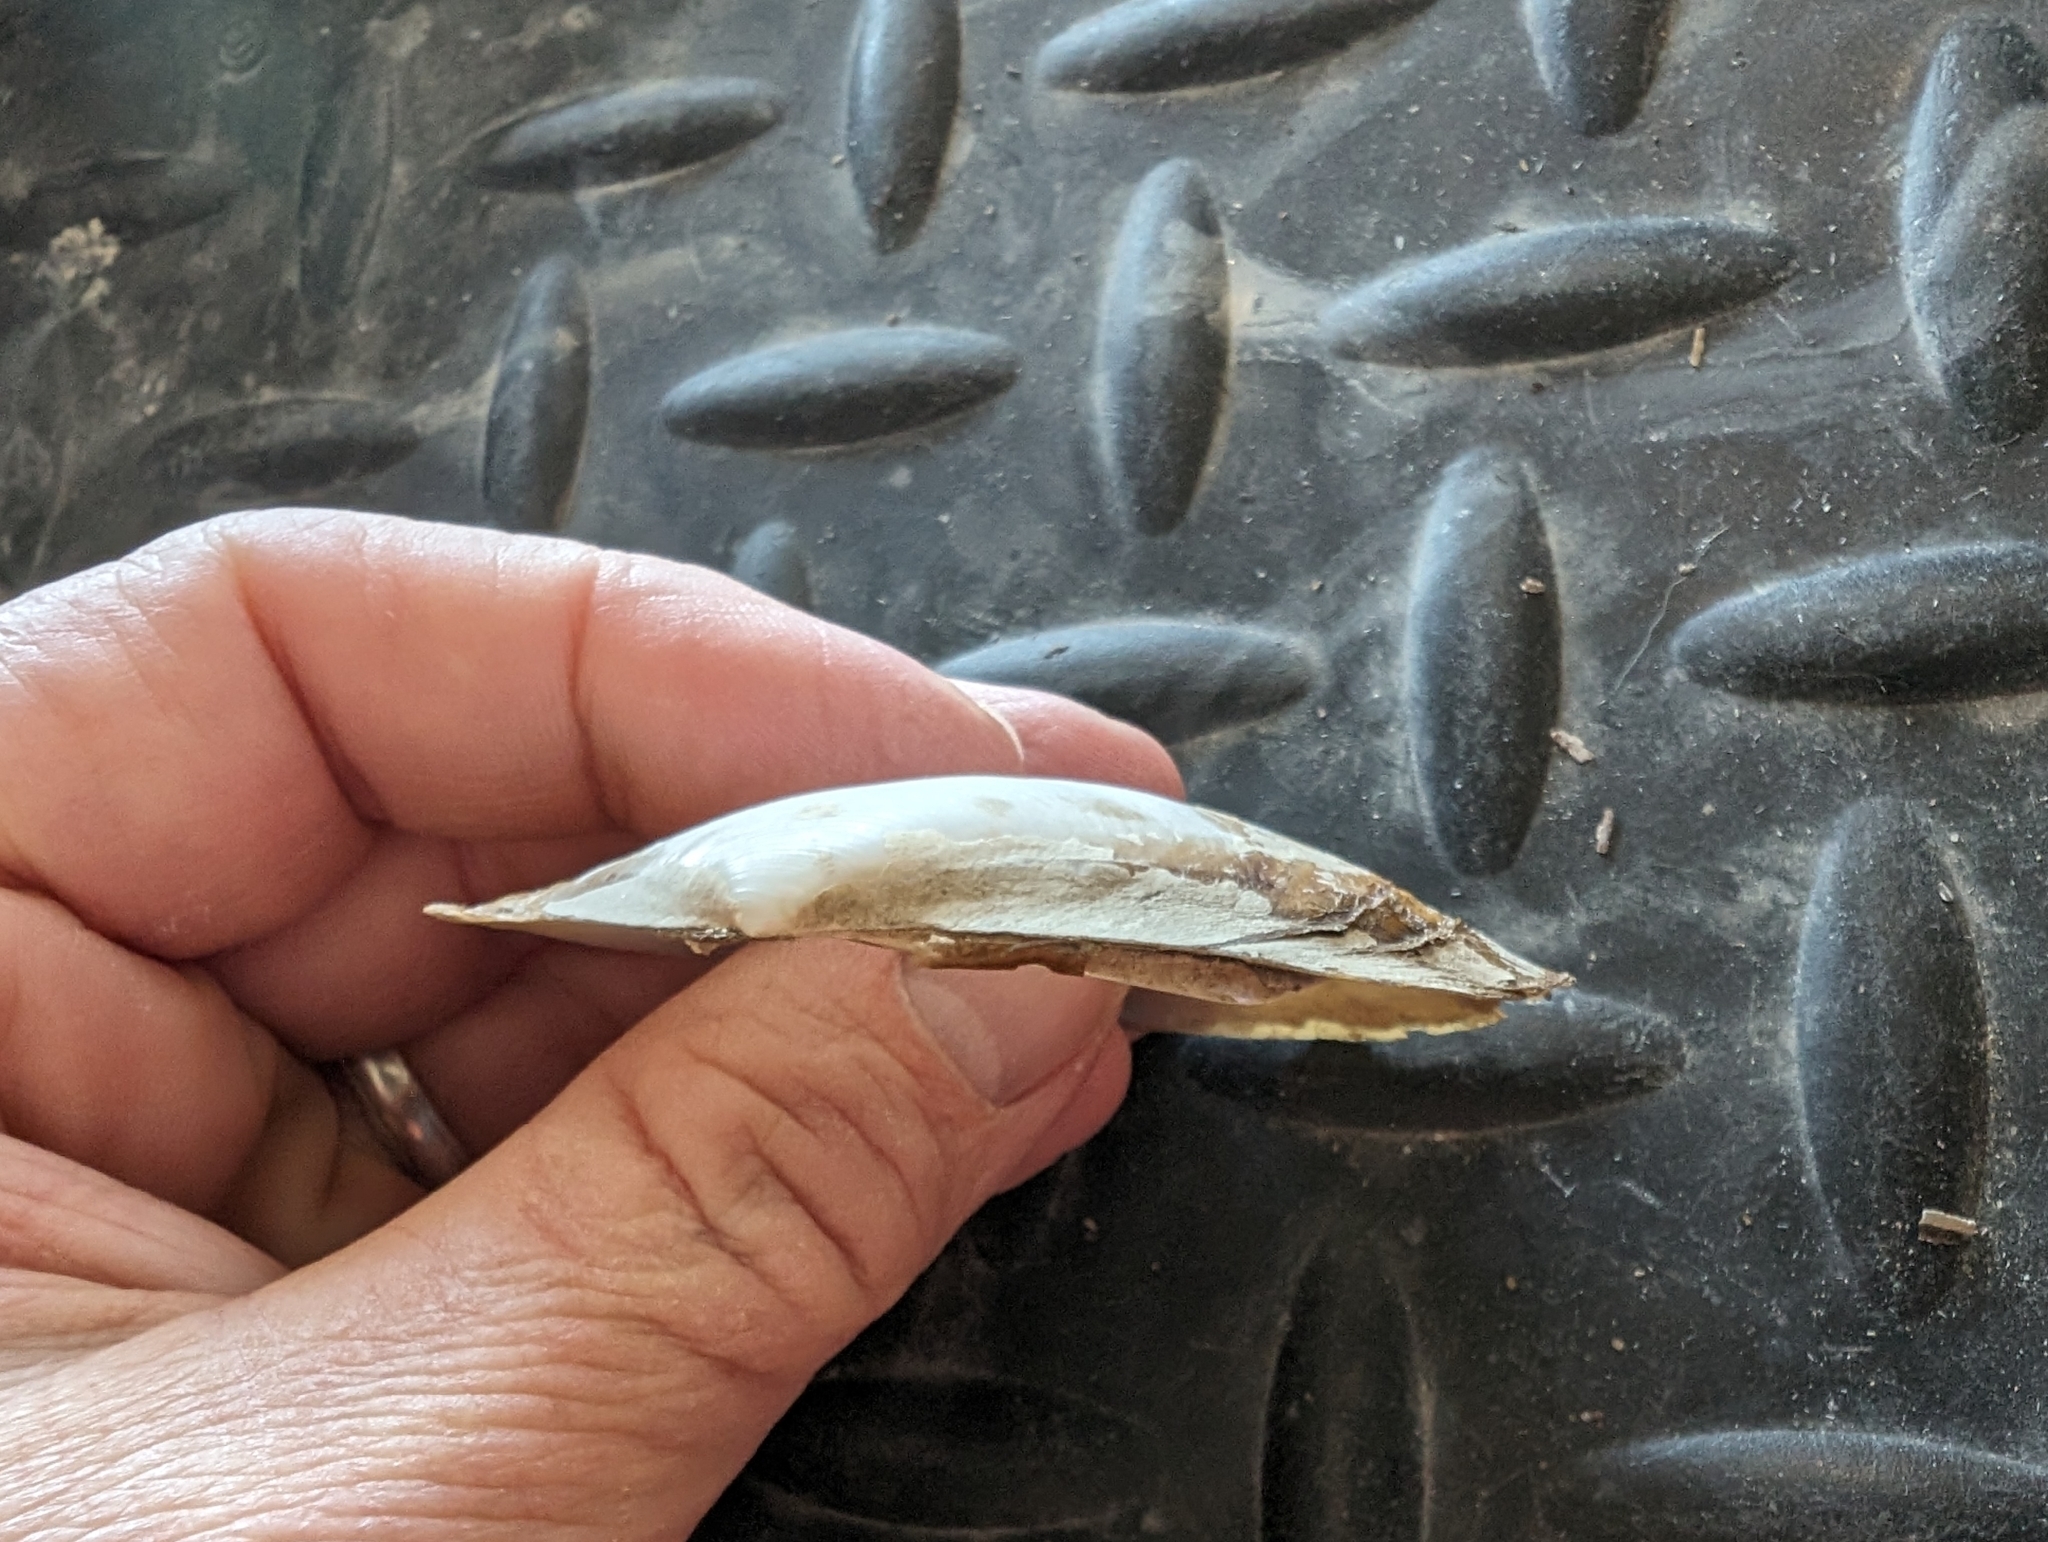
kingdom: Animalia
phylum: Mollusca
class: Bivalvia
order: Unionida
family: Unionidae
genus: Potamilus
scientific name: Potamilus fragilis
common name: Fragile papershell
